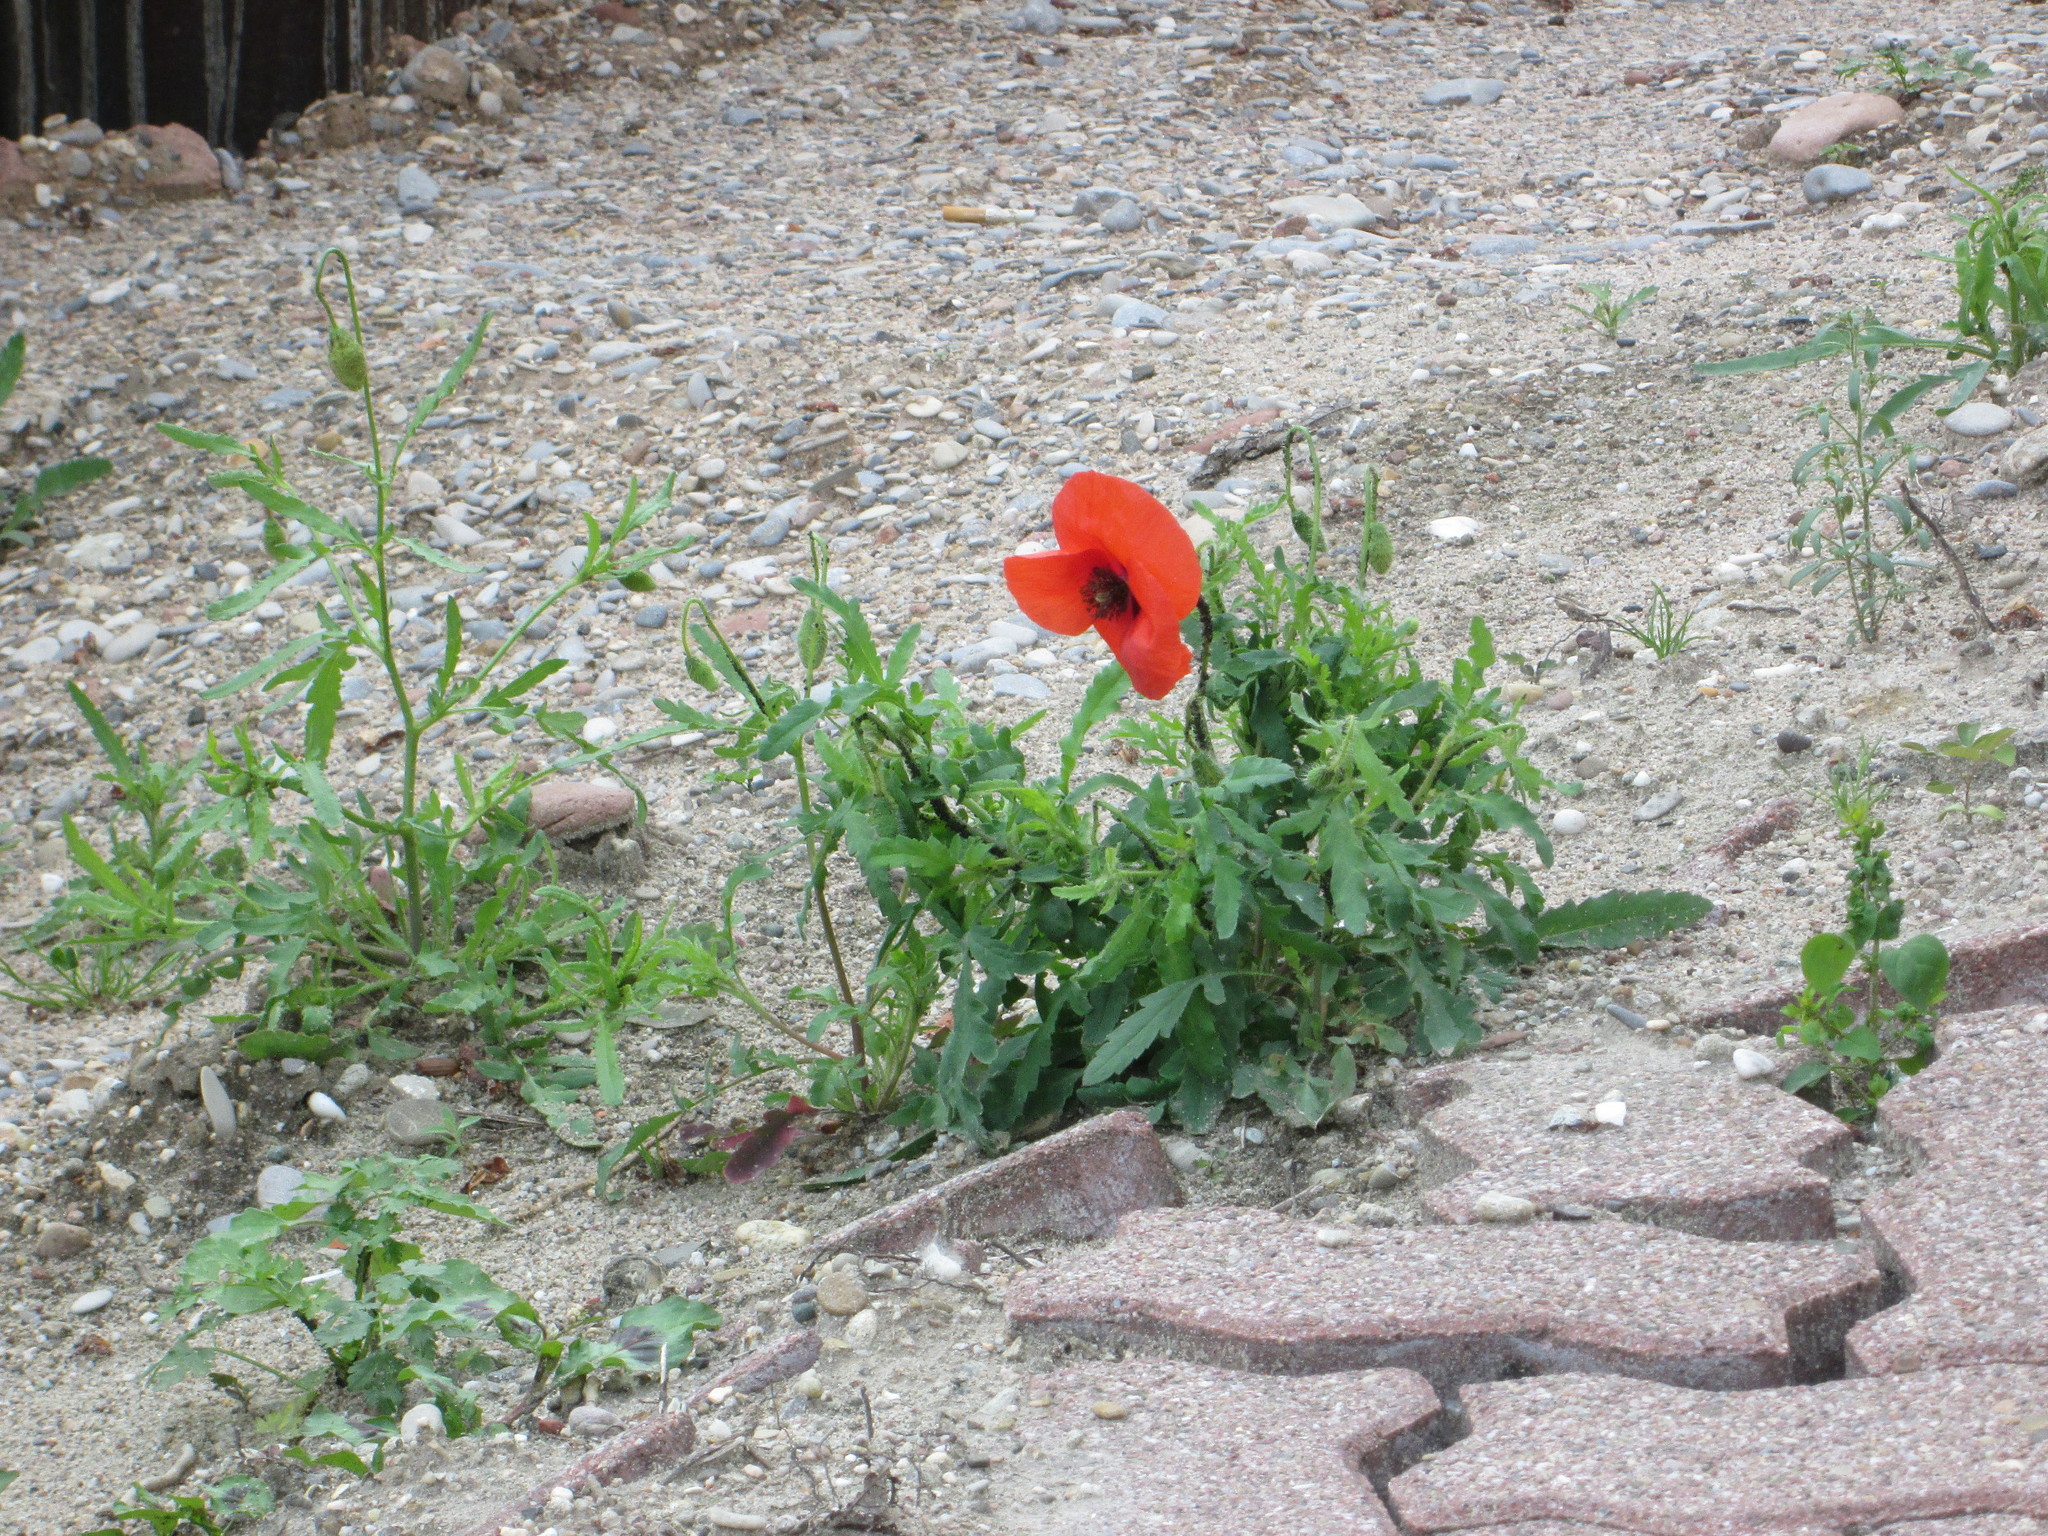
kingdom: Plantae
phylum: Tracheophyta
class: Magnoliopsida
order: Ranunculales
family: Papaveraceae
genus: Papaver
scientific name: Papaver rhoeas
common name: Corn poppy
